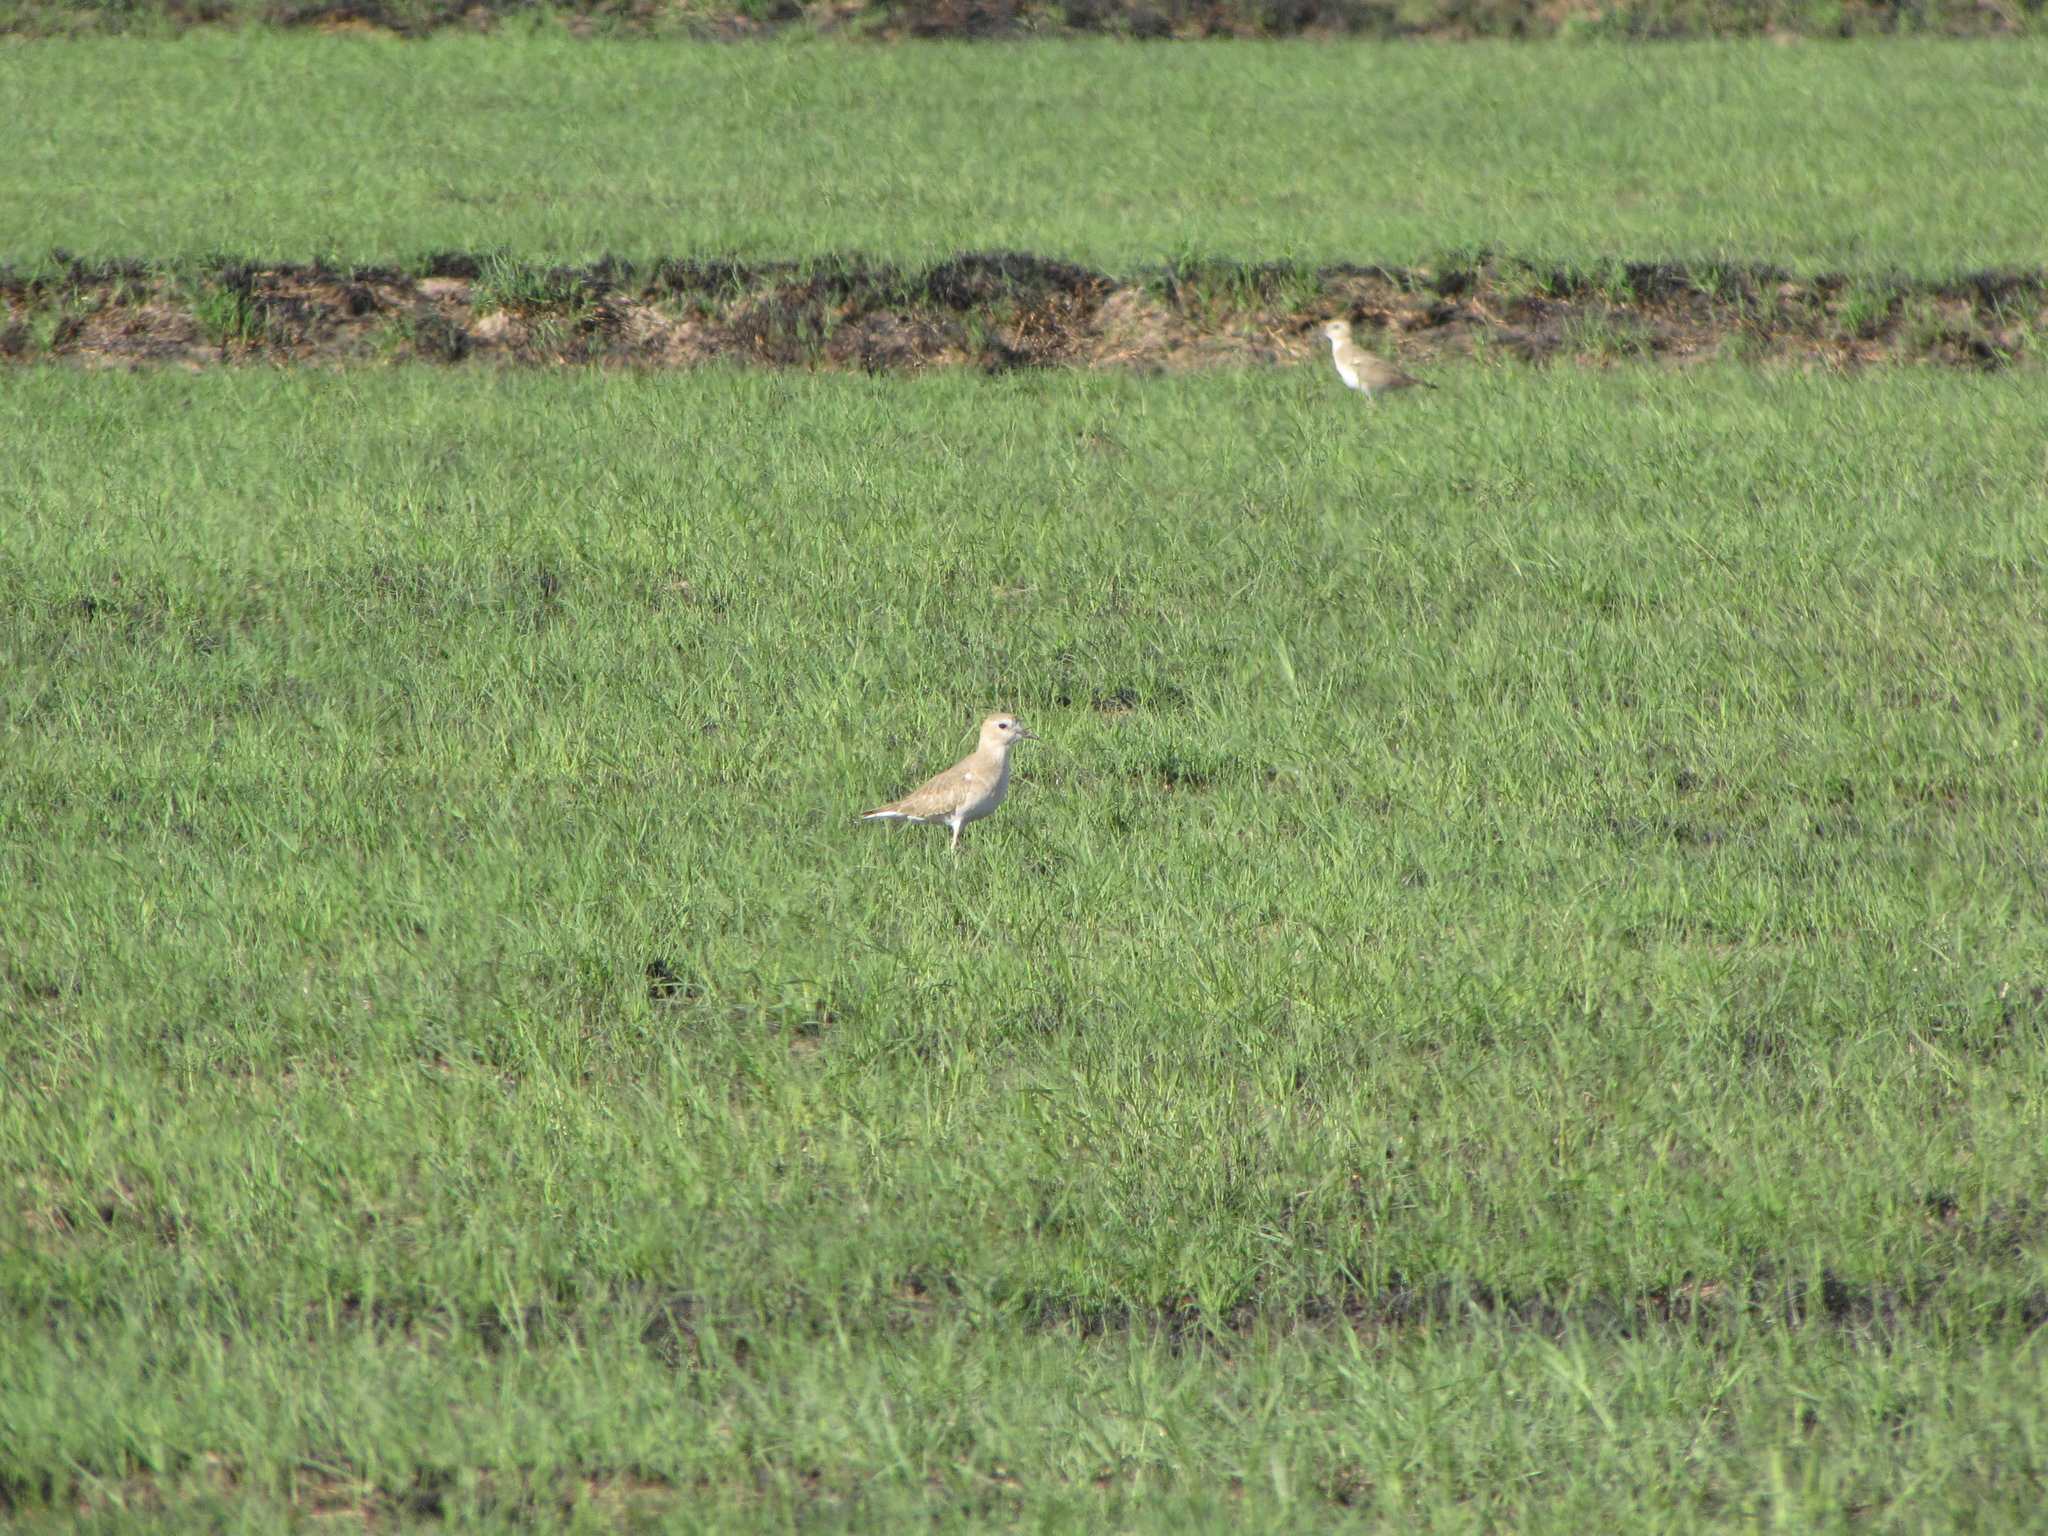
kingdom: Animalia
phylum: Chordata
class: Aves
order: Charadriiformes
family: Charadriidae
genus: Anarhynchus
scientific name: Anarhynchus
